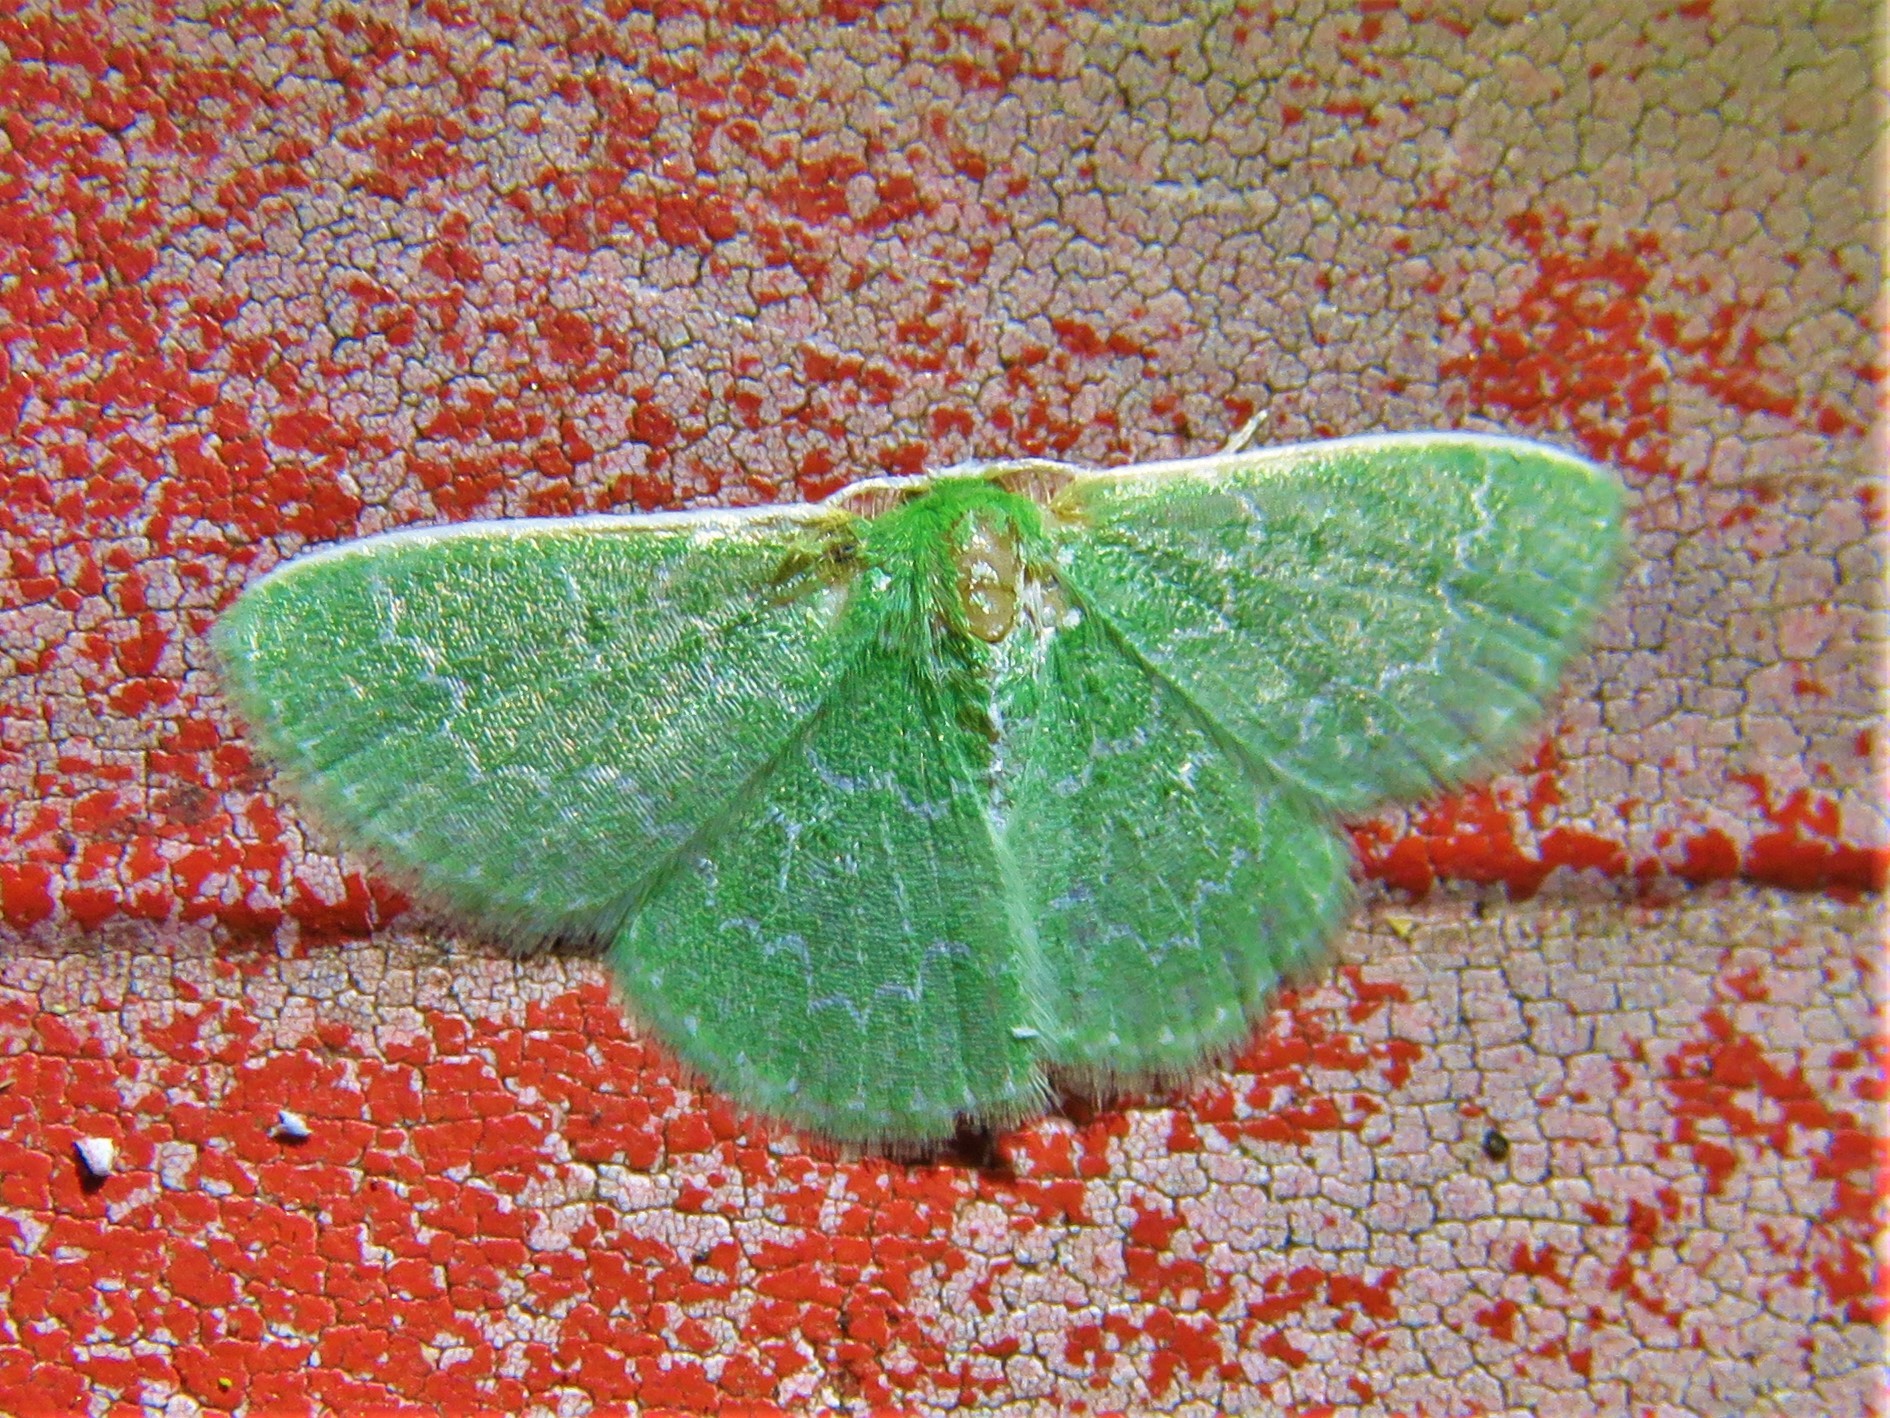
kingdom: Animalia
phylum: Arthropoda
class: Insecta
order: Lepidoptera
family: Geometridae
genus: Synchlora
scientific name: Synchlora frondaria
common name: Southern emerald
